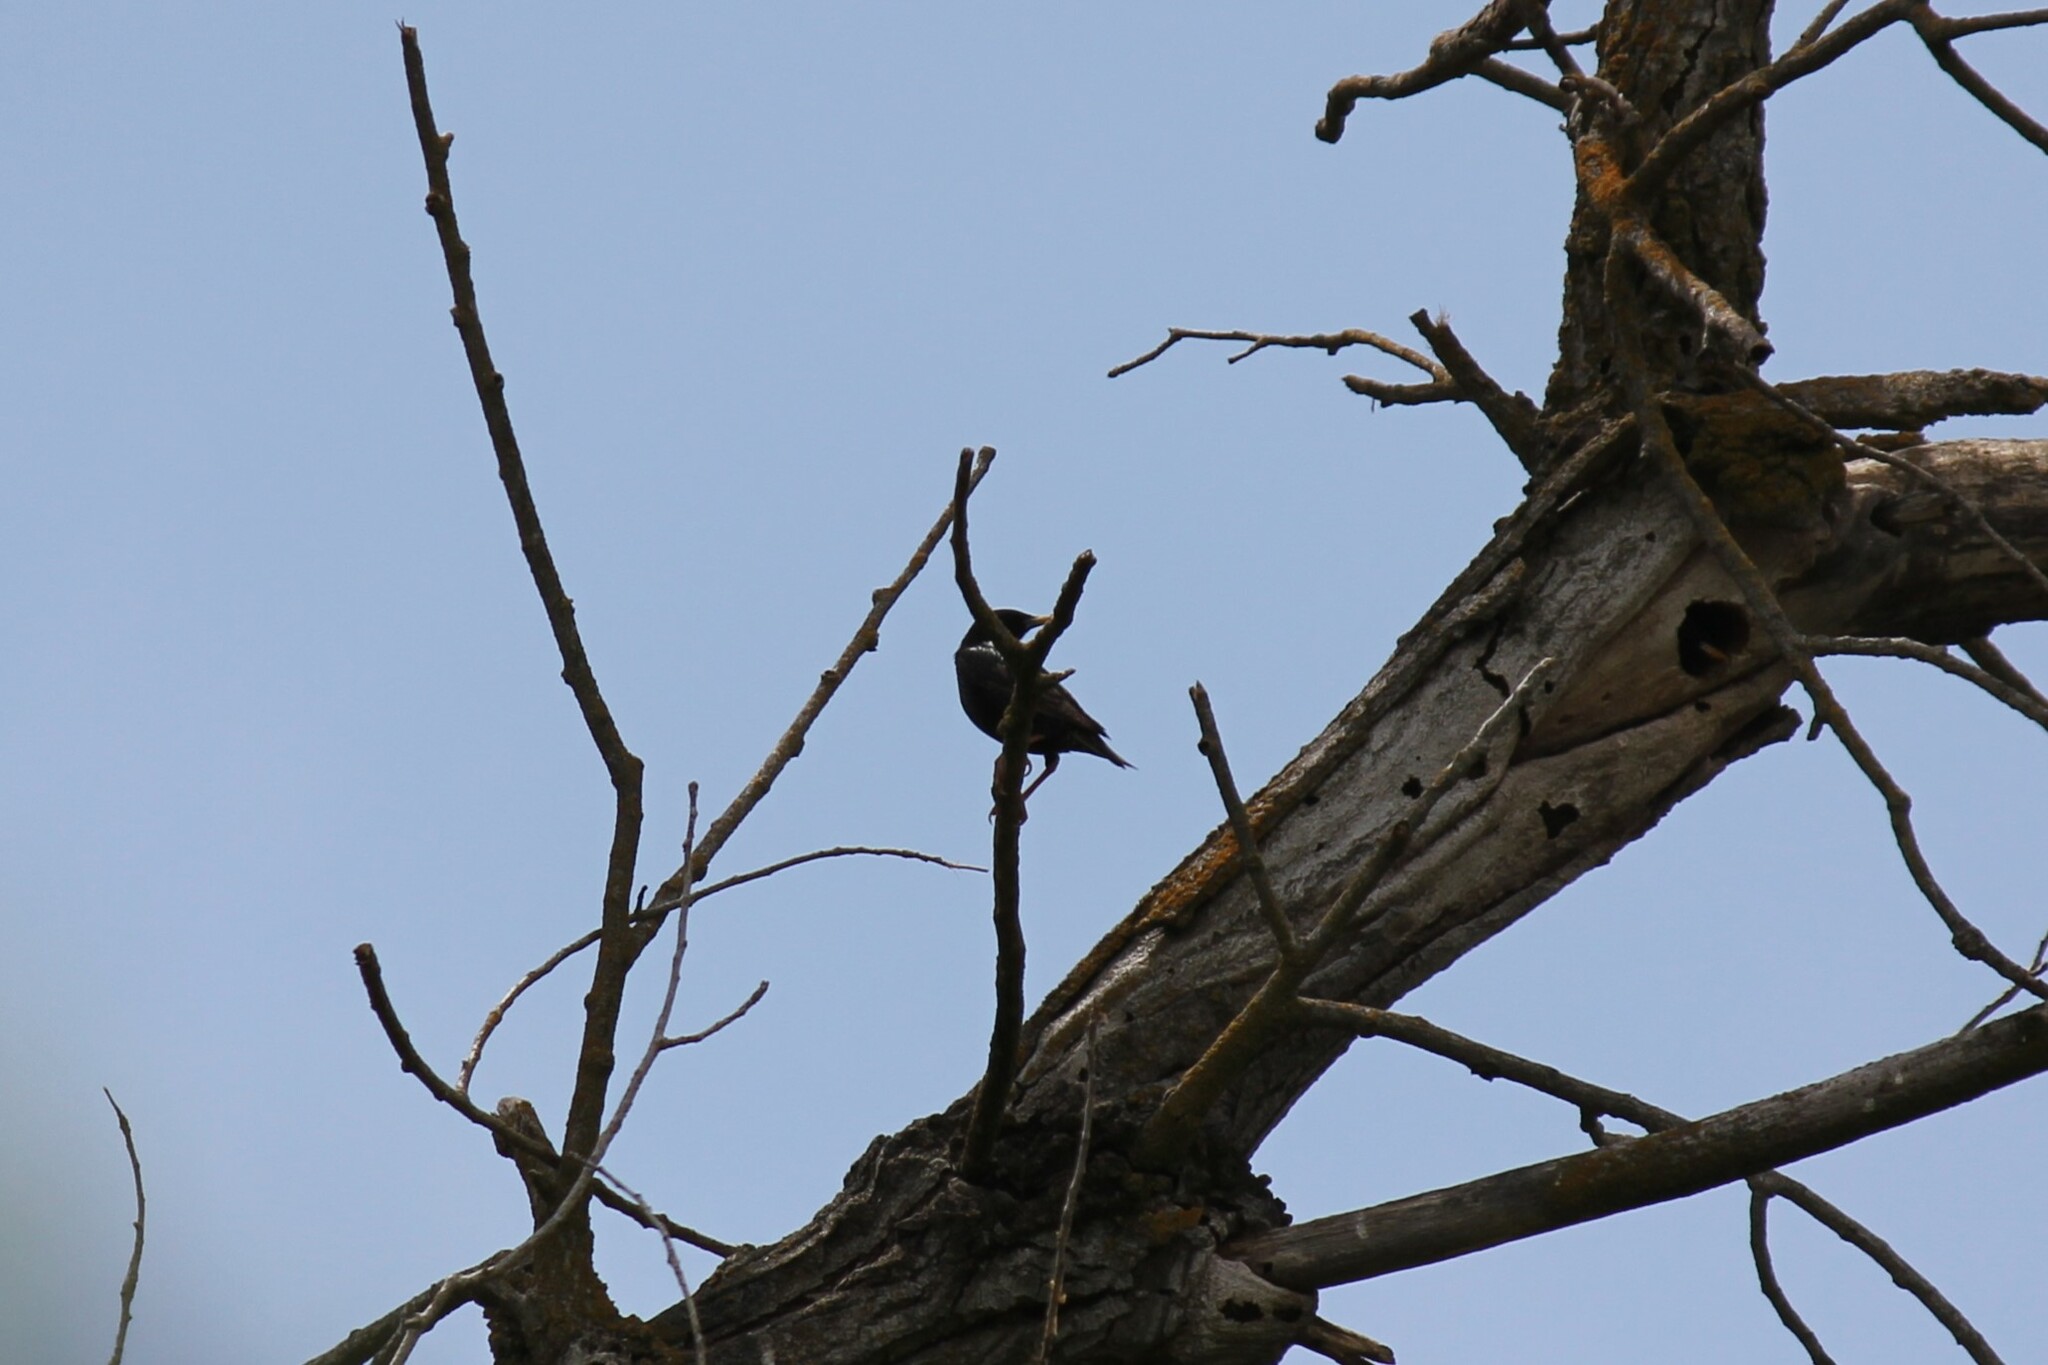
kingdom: Animalia
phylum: Chordata
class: Aves
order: Passeriformes
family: Sturnidae
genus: Sturnus
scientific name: Sturnus vulgaris
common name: Common starling
